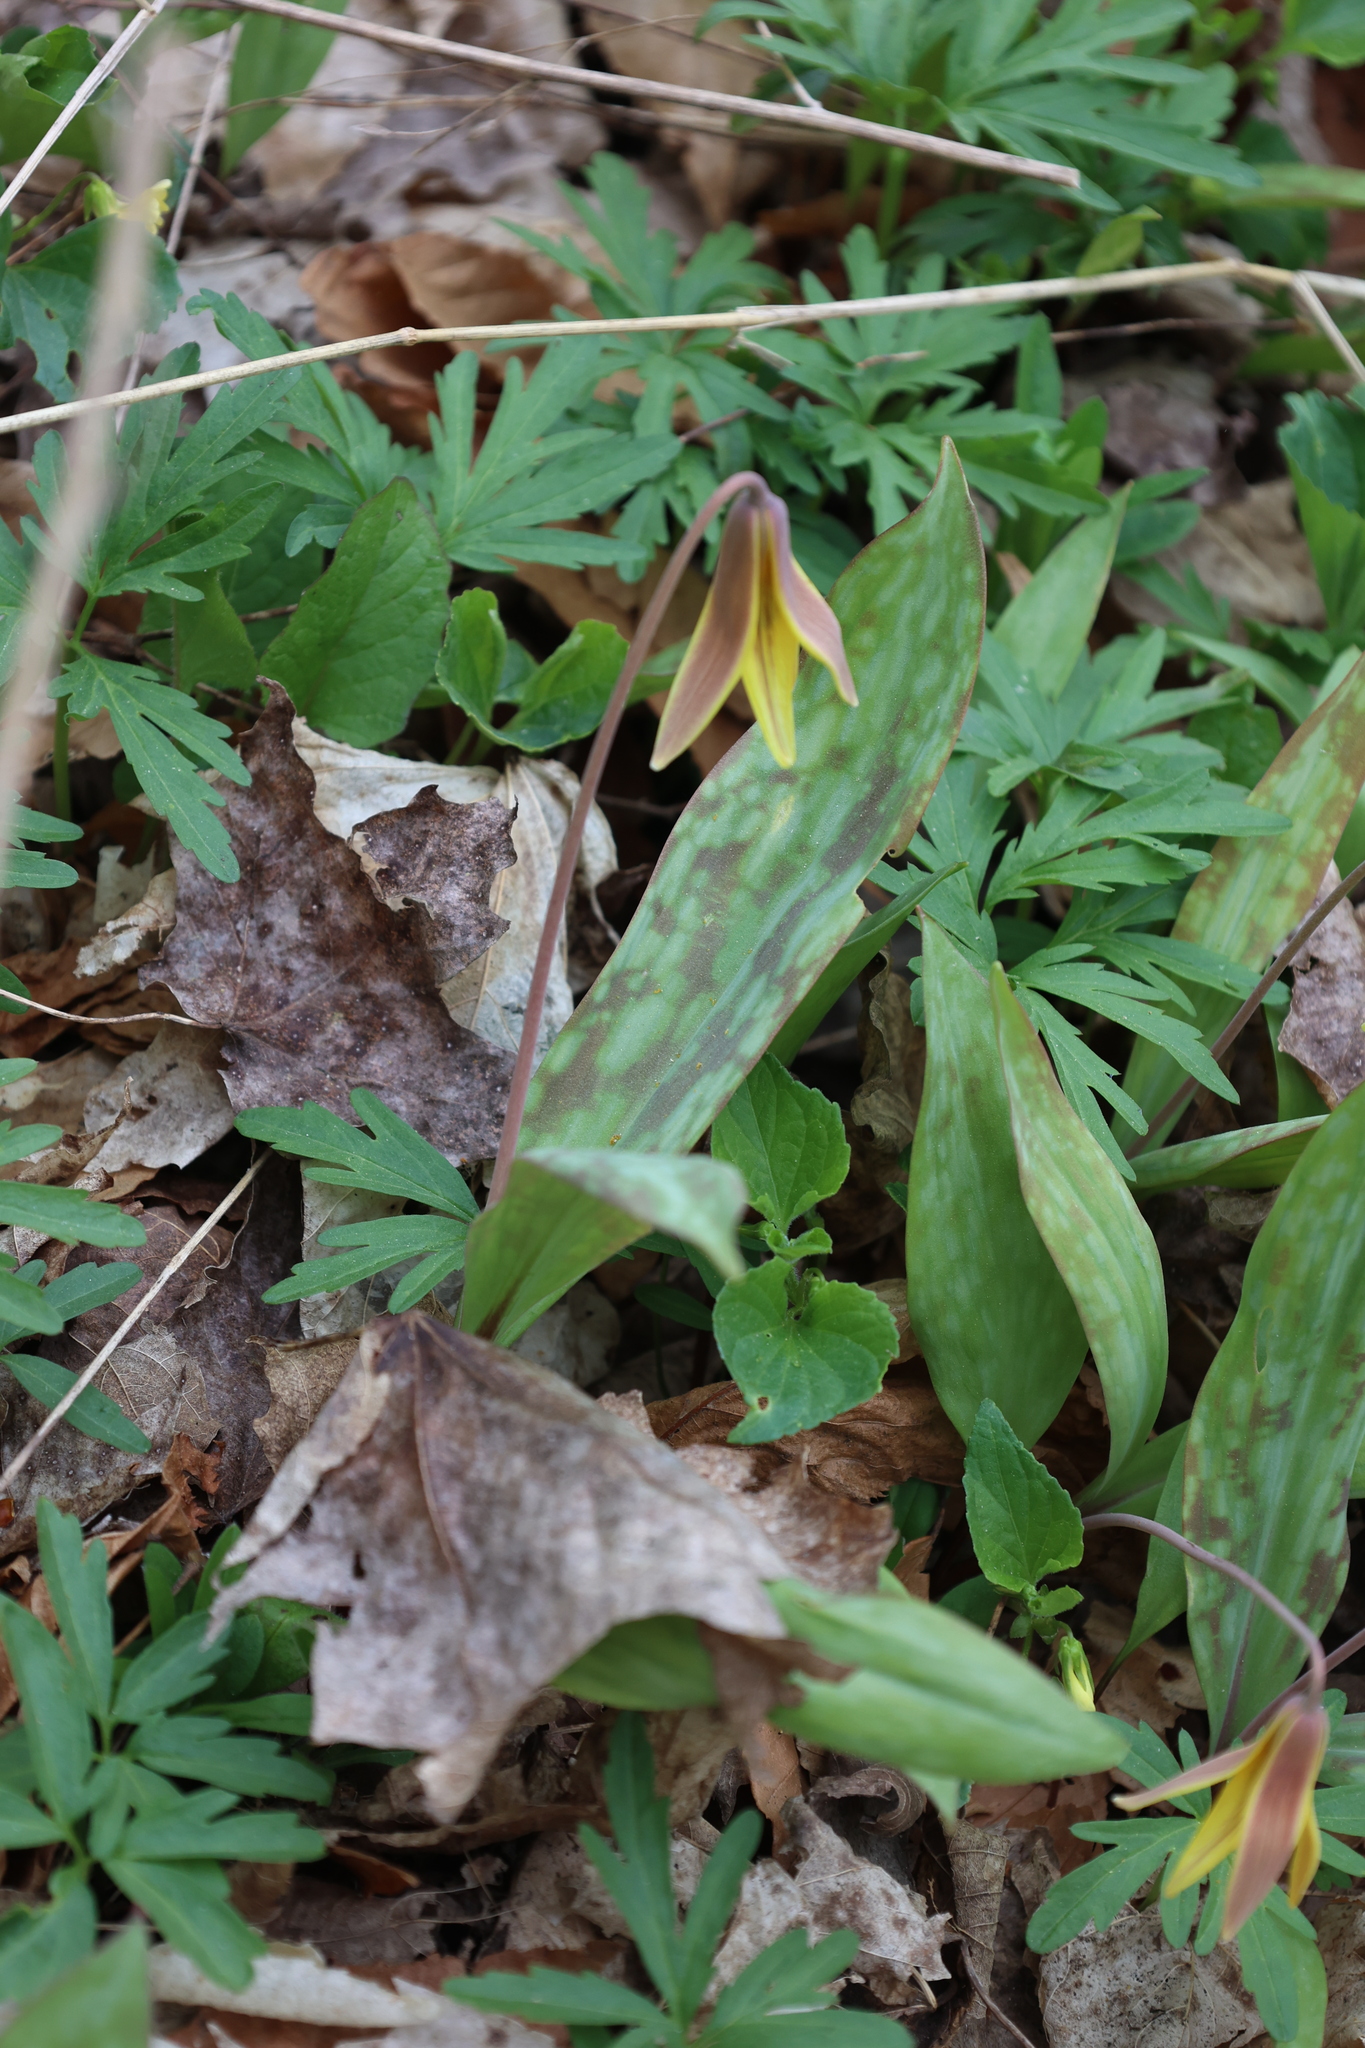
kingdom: Plantae
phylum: Tracheophyta
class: Liliopsida
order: Liliales
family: Liliaceae
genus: Erythronium
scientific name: Erythronium americanum
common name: Yellow adder's-tongue
